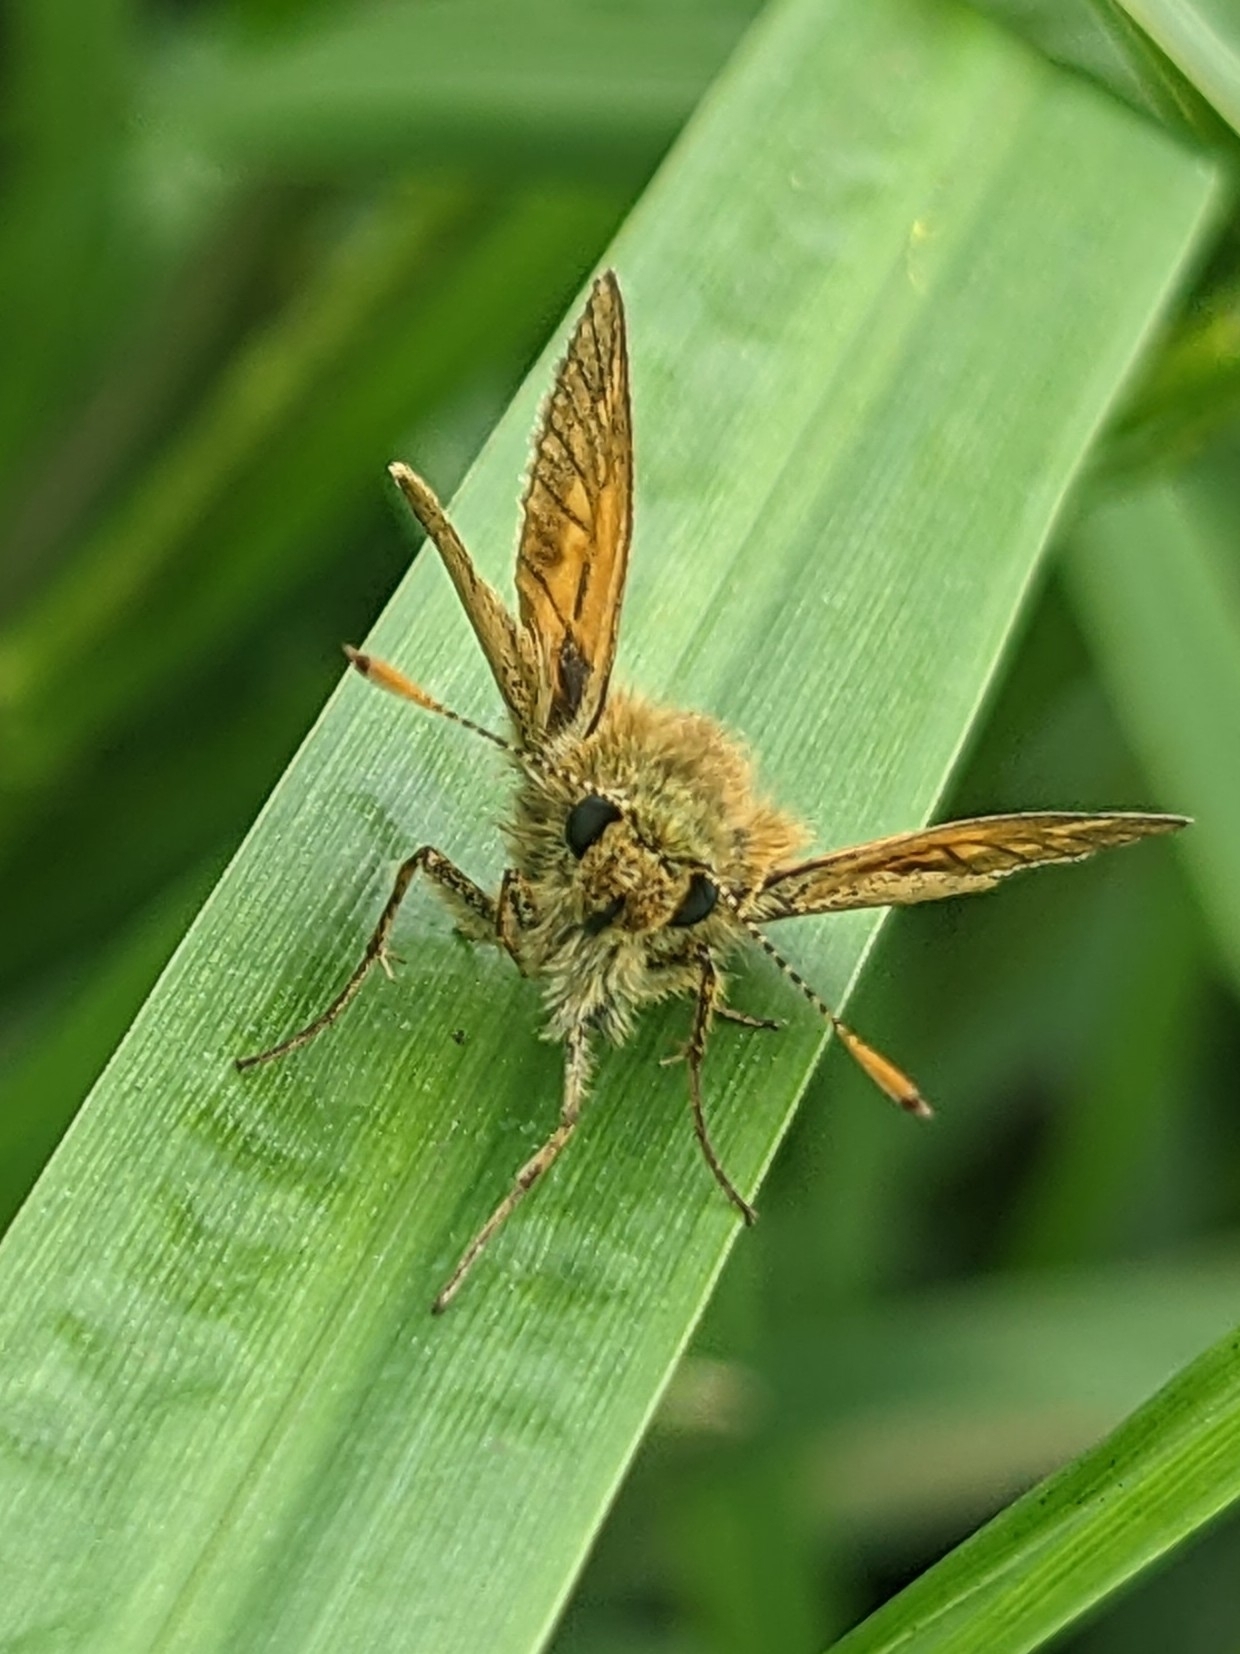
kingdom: Animalia
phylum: Arthropoda
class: Insecta
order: Lepidoptera
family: Hesperiidae
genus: Ochlodes
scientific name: Ochlodes venata
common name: Large skipper
